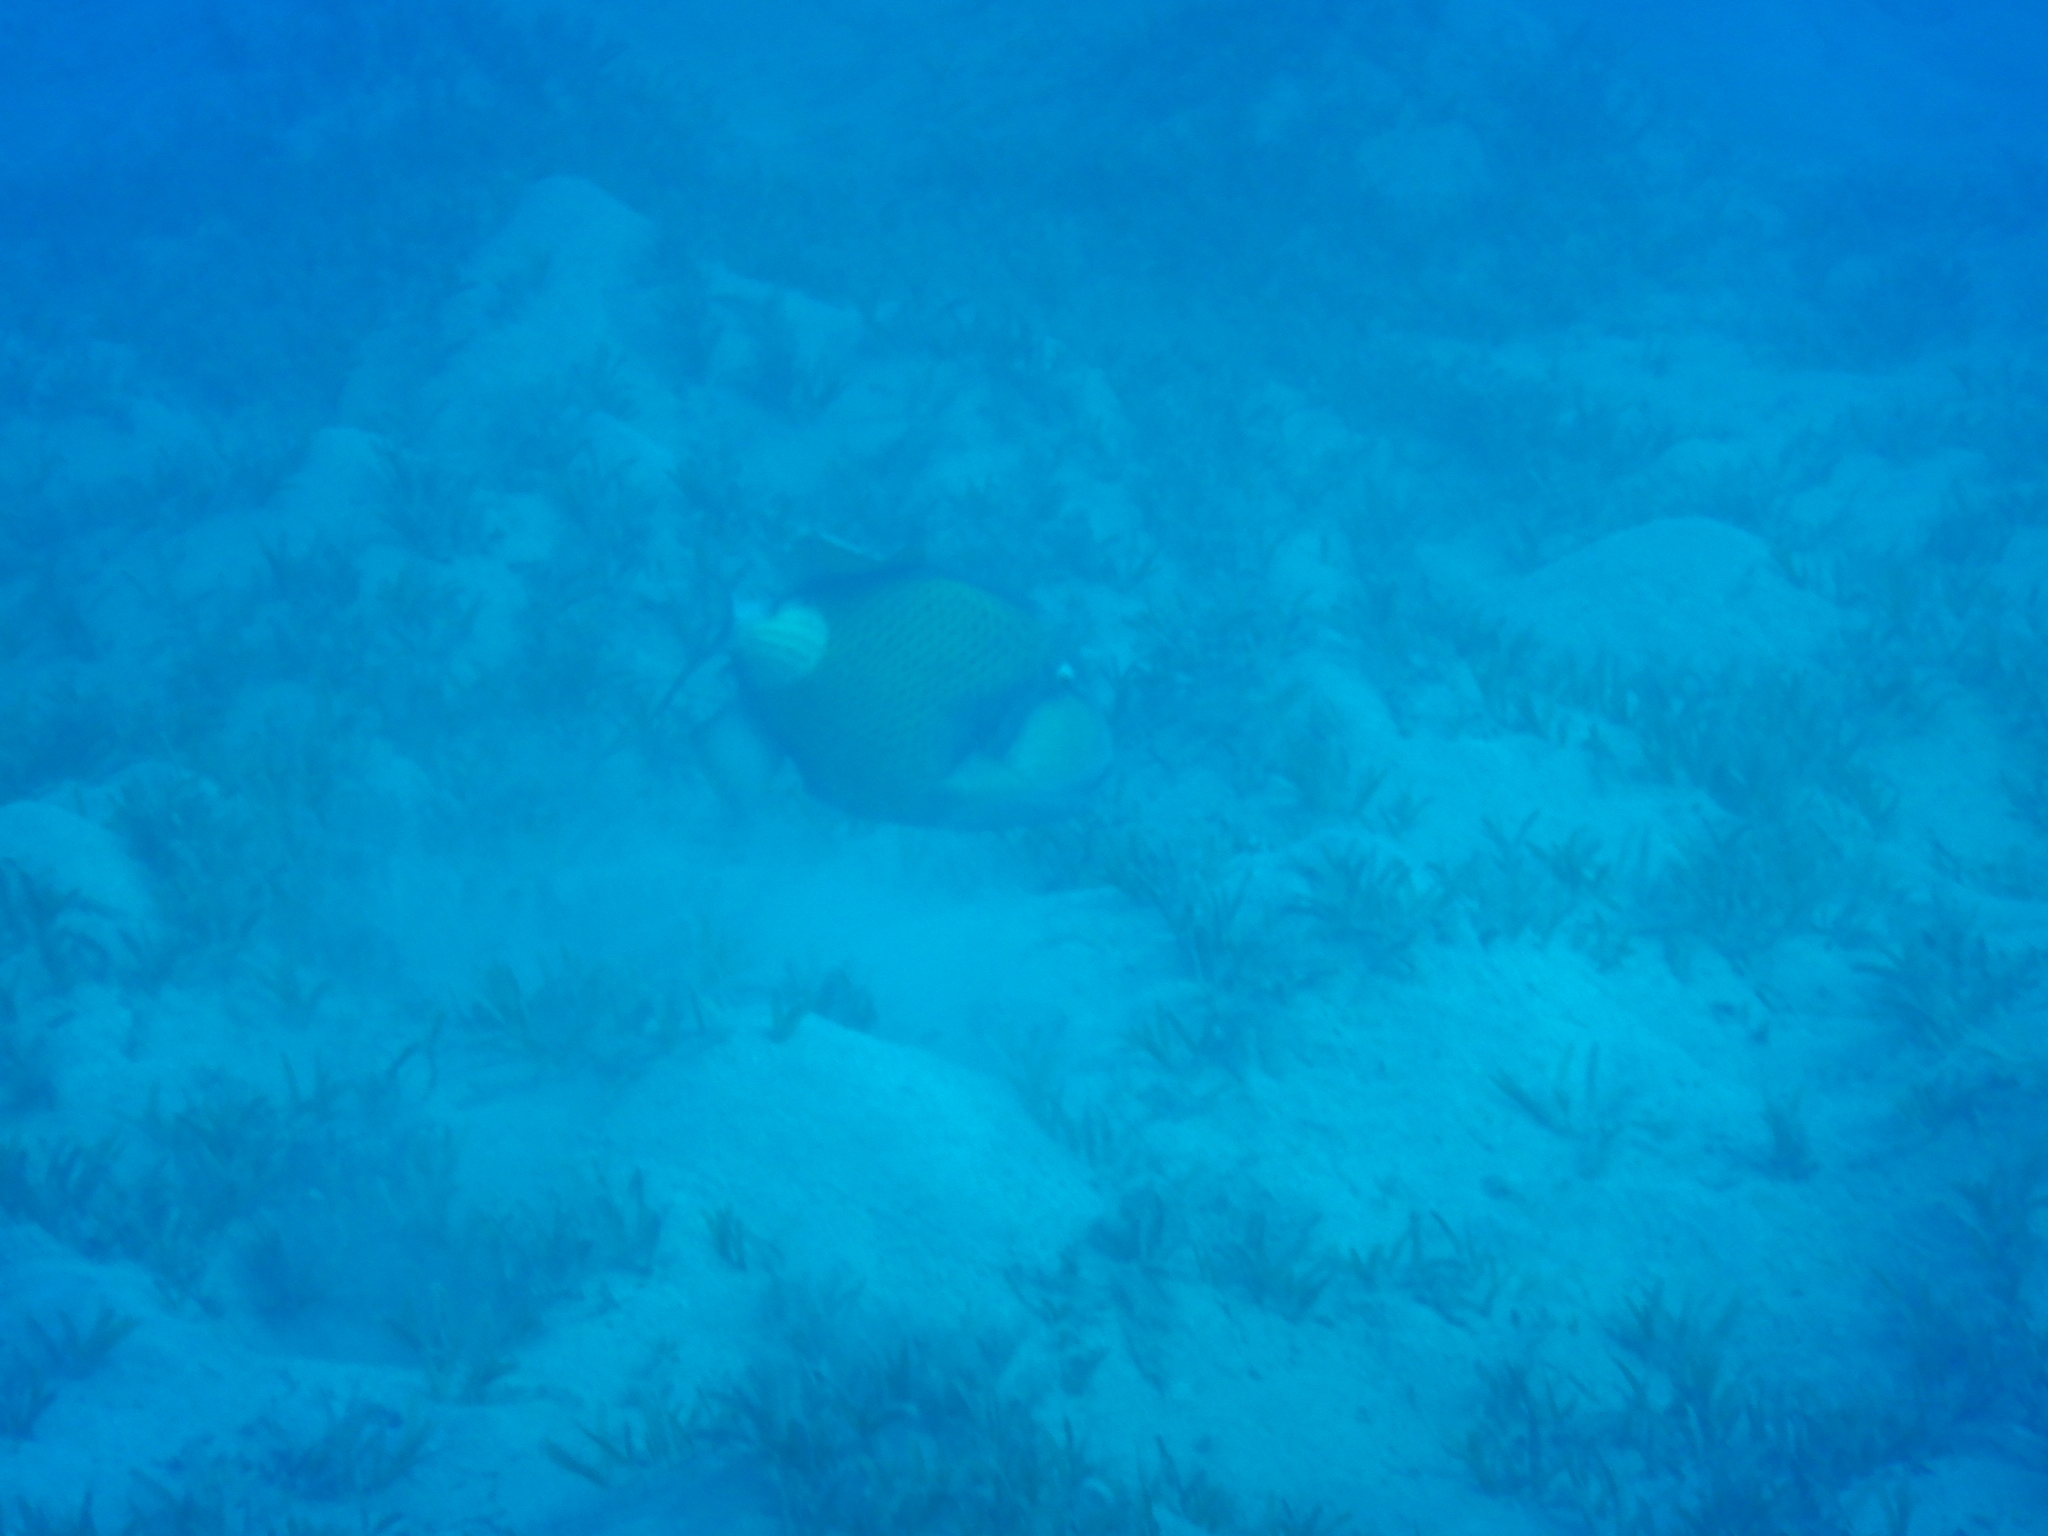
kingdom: Animalia
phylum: Chordata
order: Tetraodontiformes
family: Balistidae
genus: Balistoides
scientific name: Balistoides viridescens
